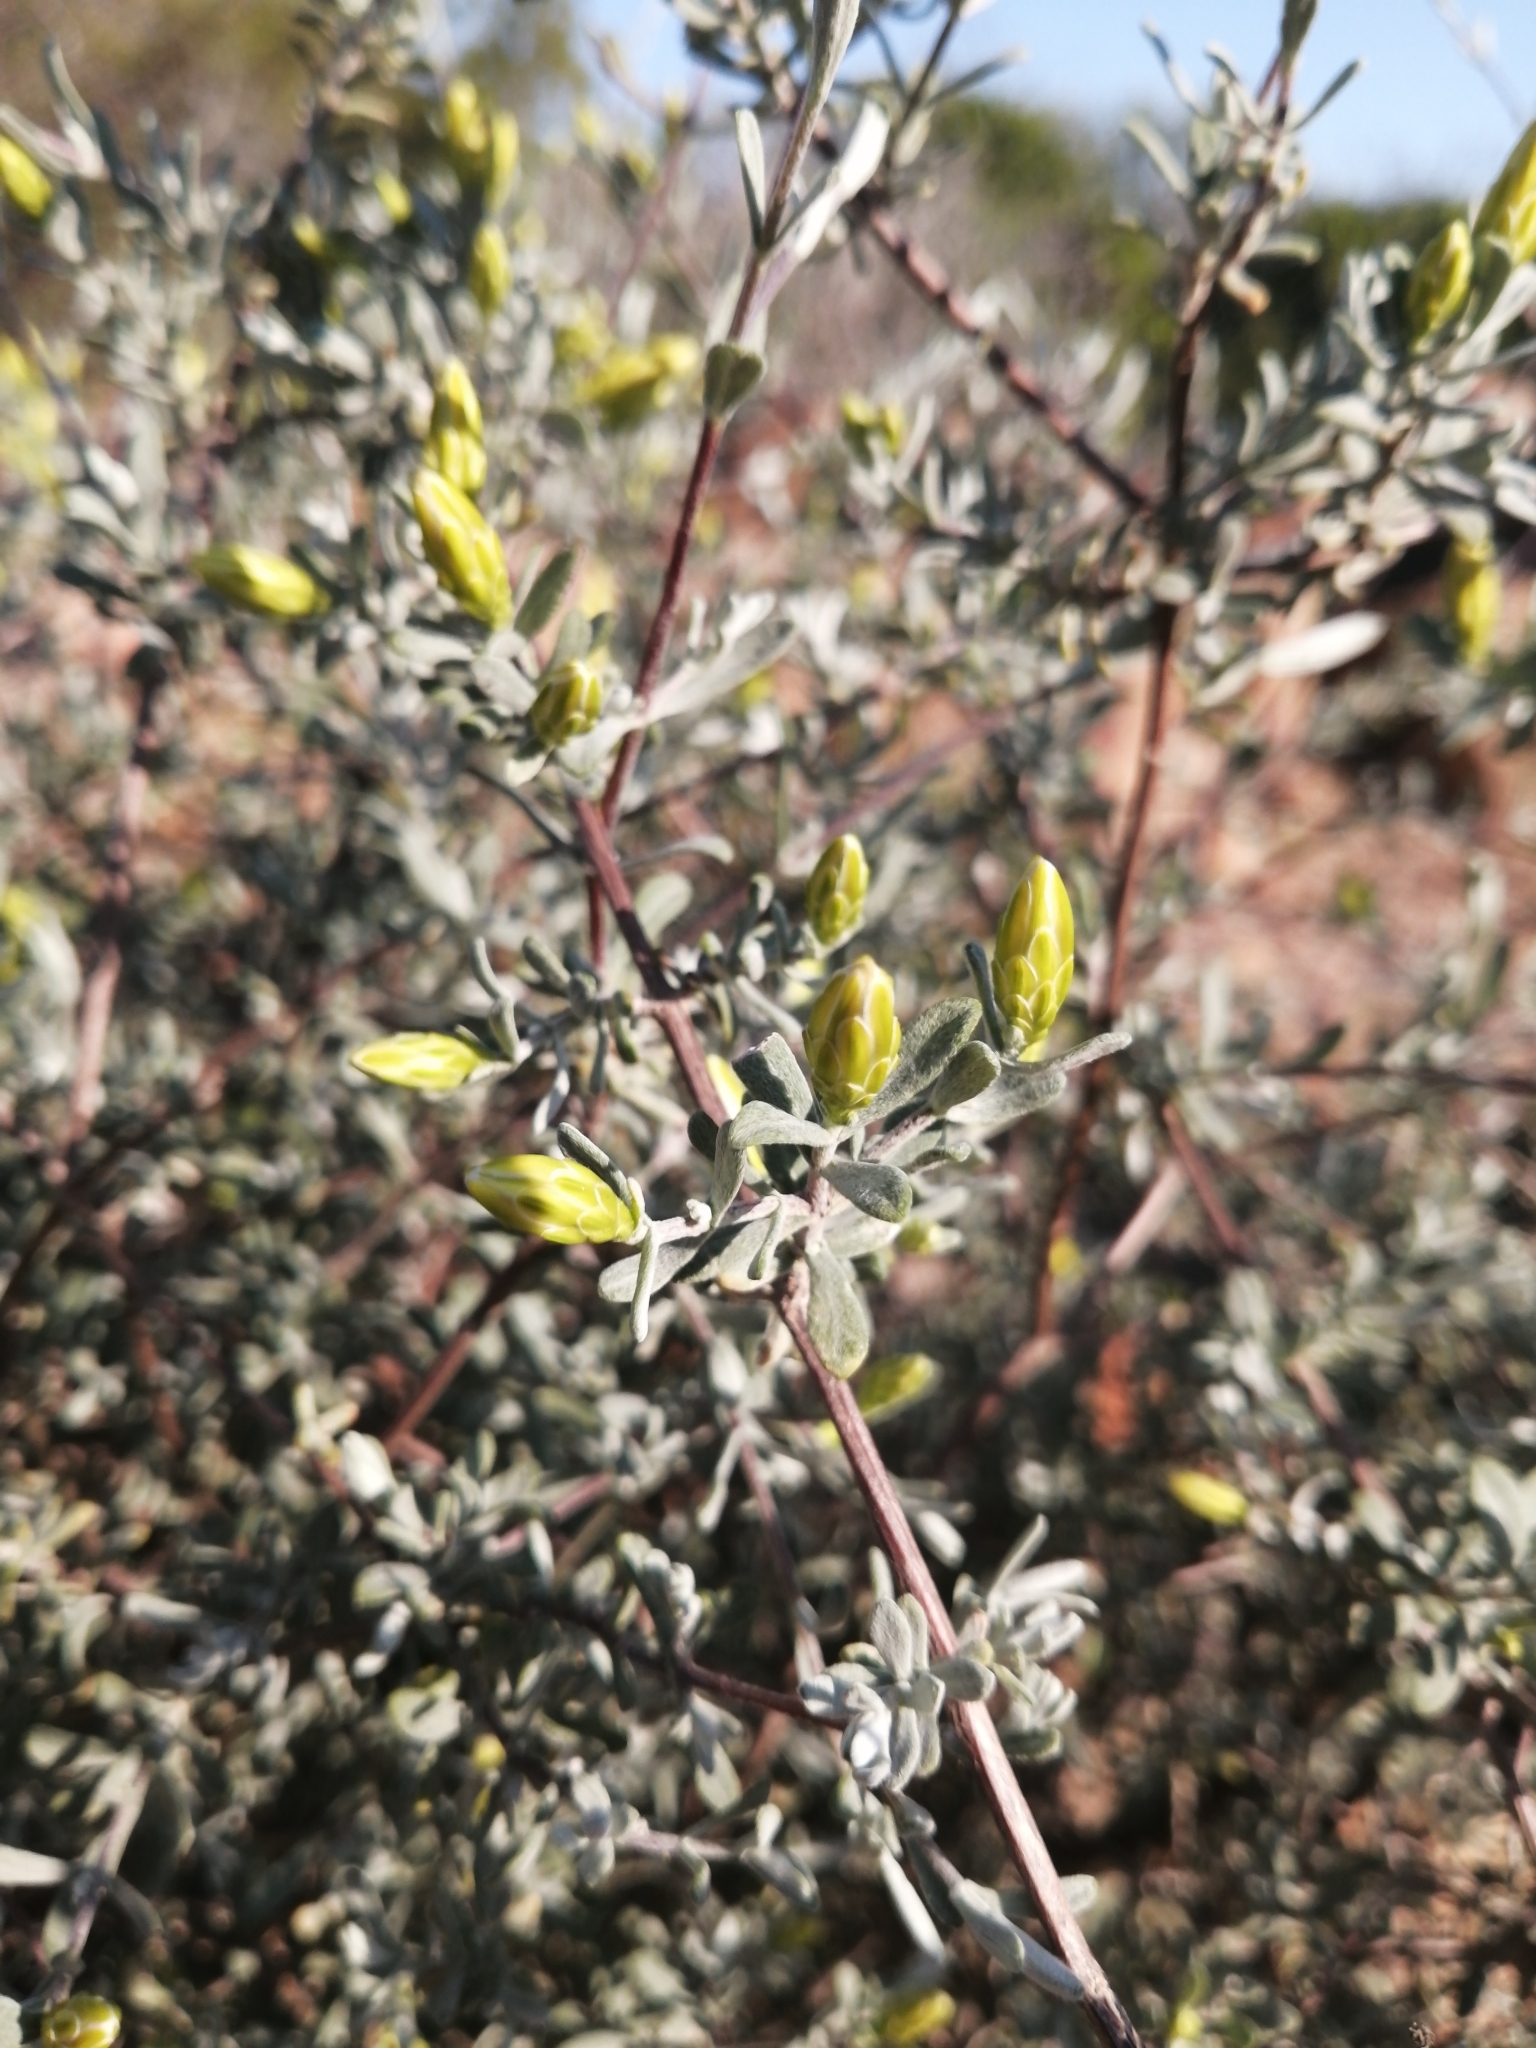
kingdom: Plantae
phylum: Tracheophyta
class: Magnoliopsida
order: Asterales
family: Asteraceae
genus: Pteronia
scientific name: Pteronia incana
